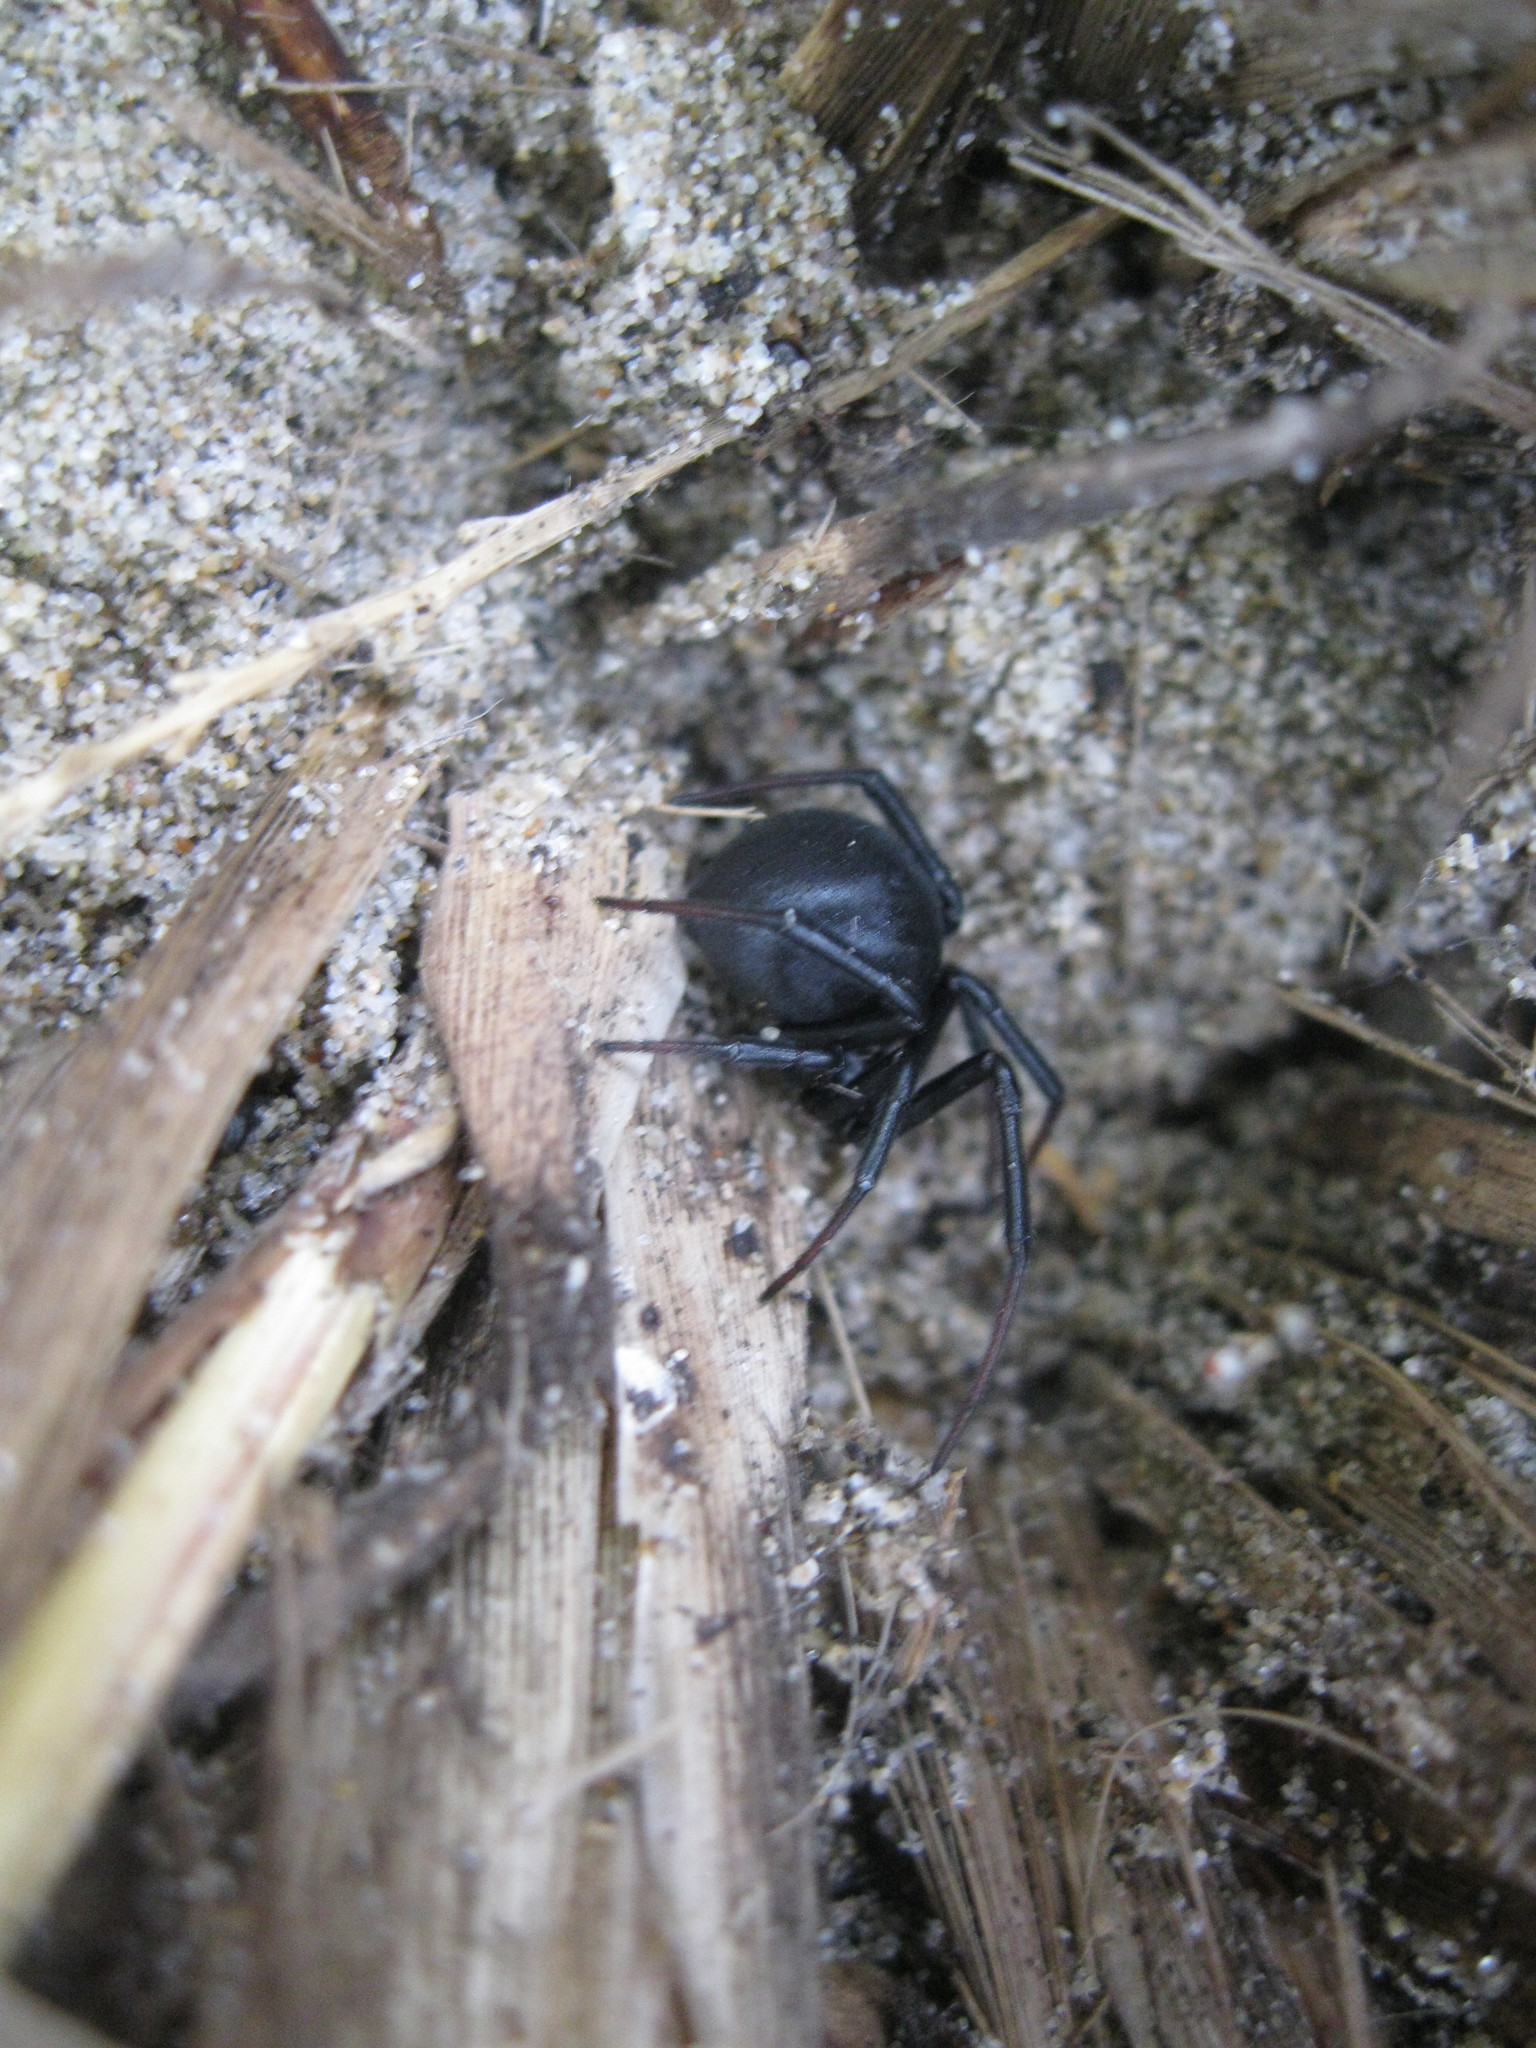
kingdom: Animalia
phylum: Arthropoda
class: Arachnida
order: Araneae
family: Theridiidae
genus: Latrodectus
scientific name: Latrodectus katipo
